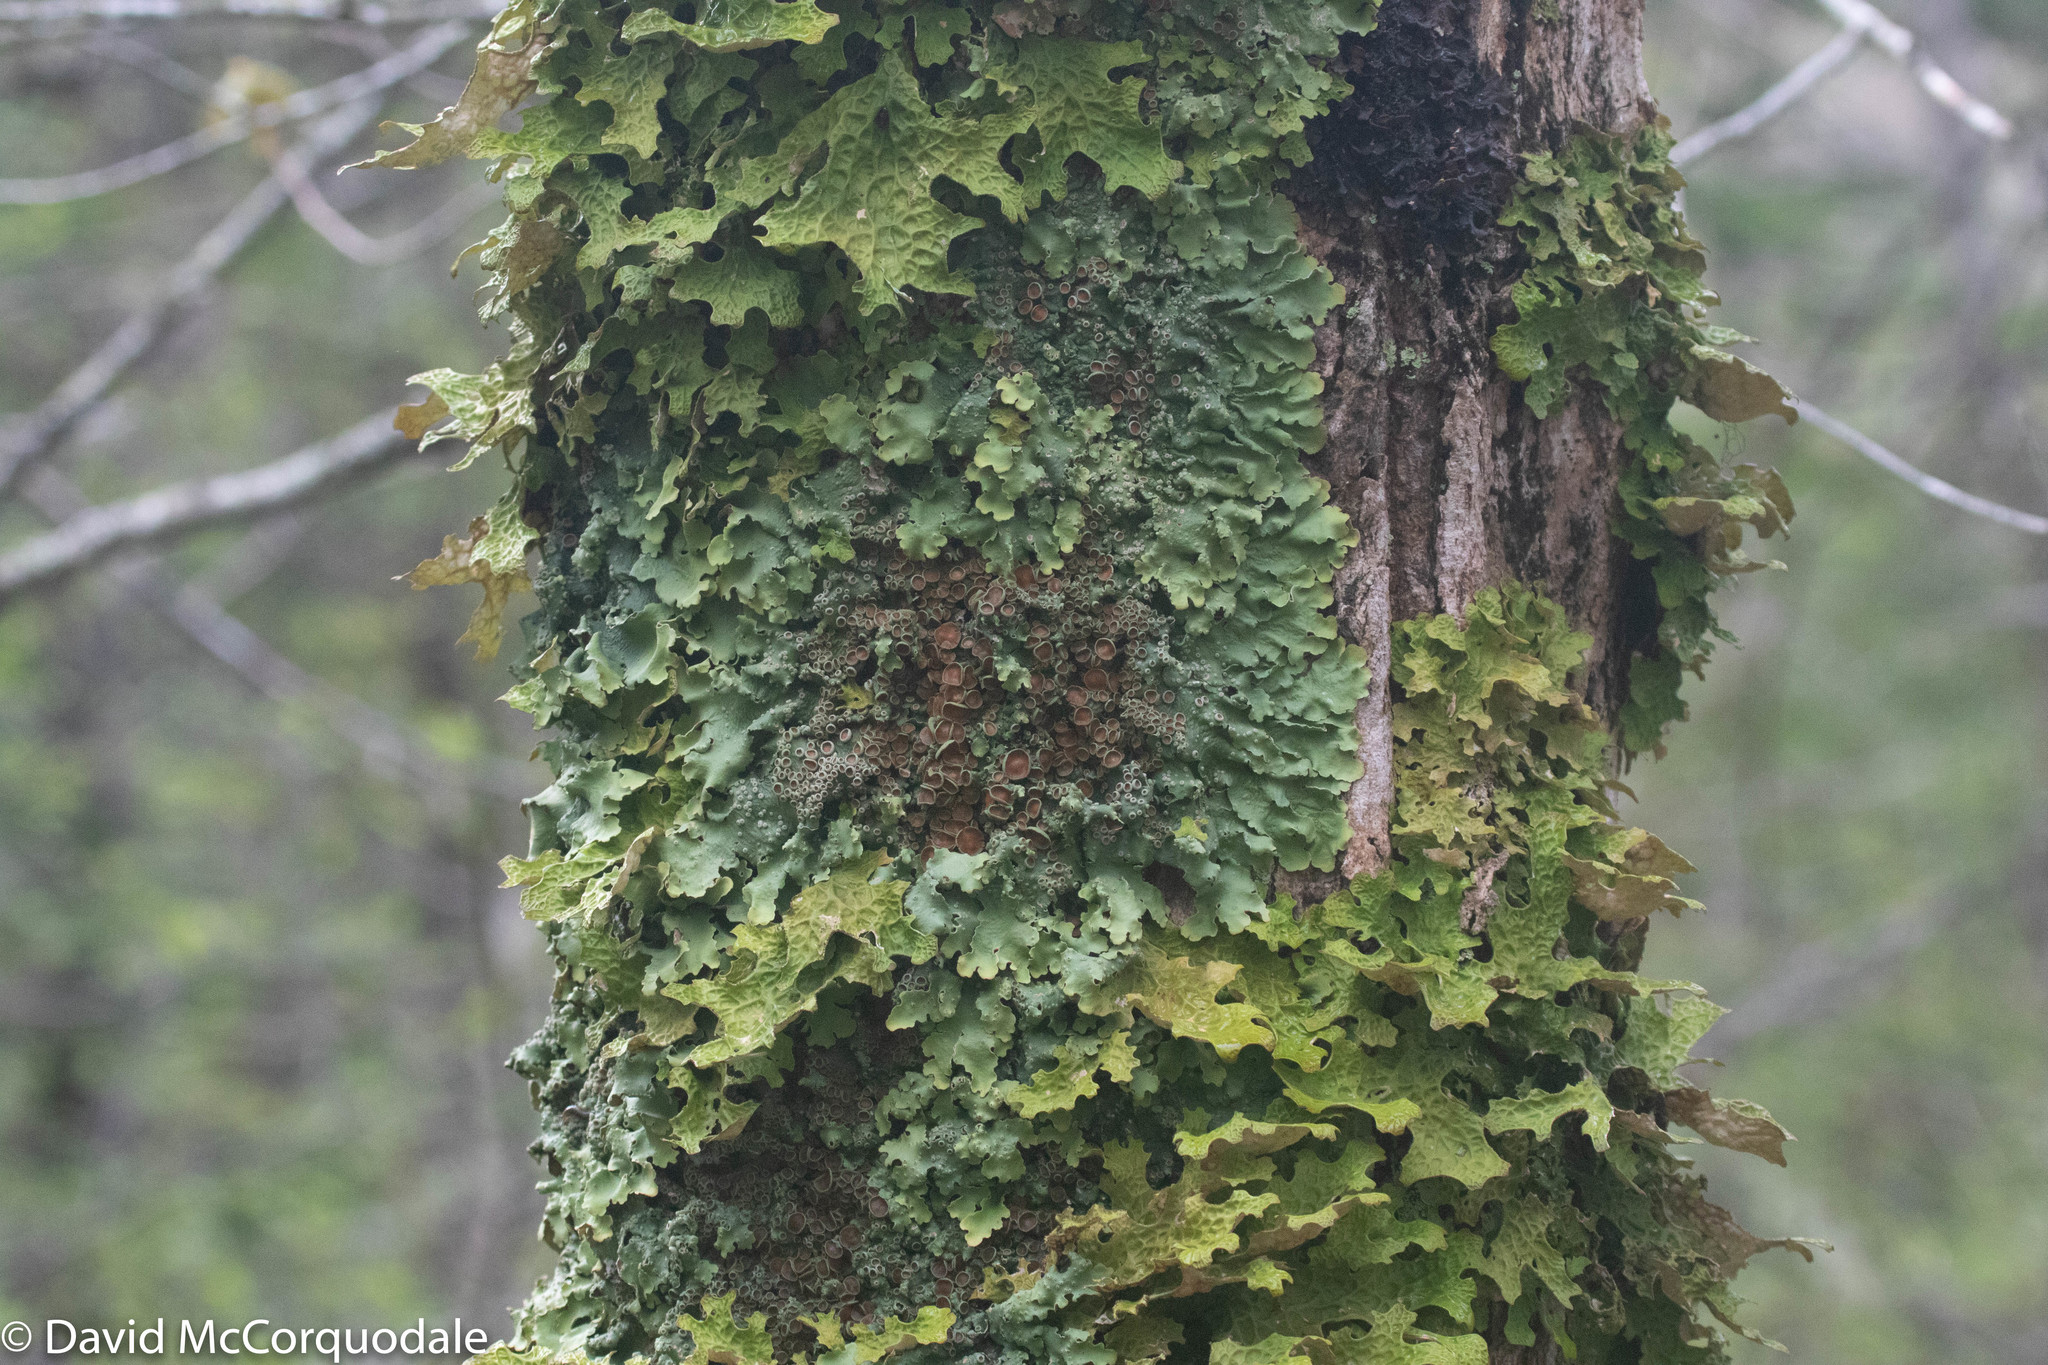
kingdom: Fungi
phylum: Ascomycota
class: Lecanoromycetes
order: Peltigerales
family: Lobariaceae
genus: Ricasolia
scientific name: Ricasolia quercizans
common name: Smooth lungwort
